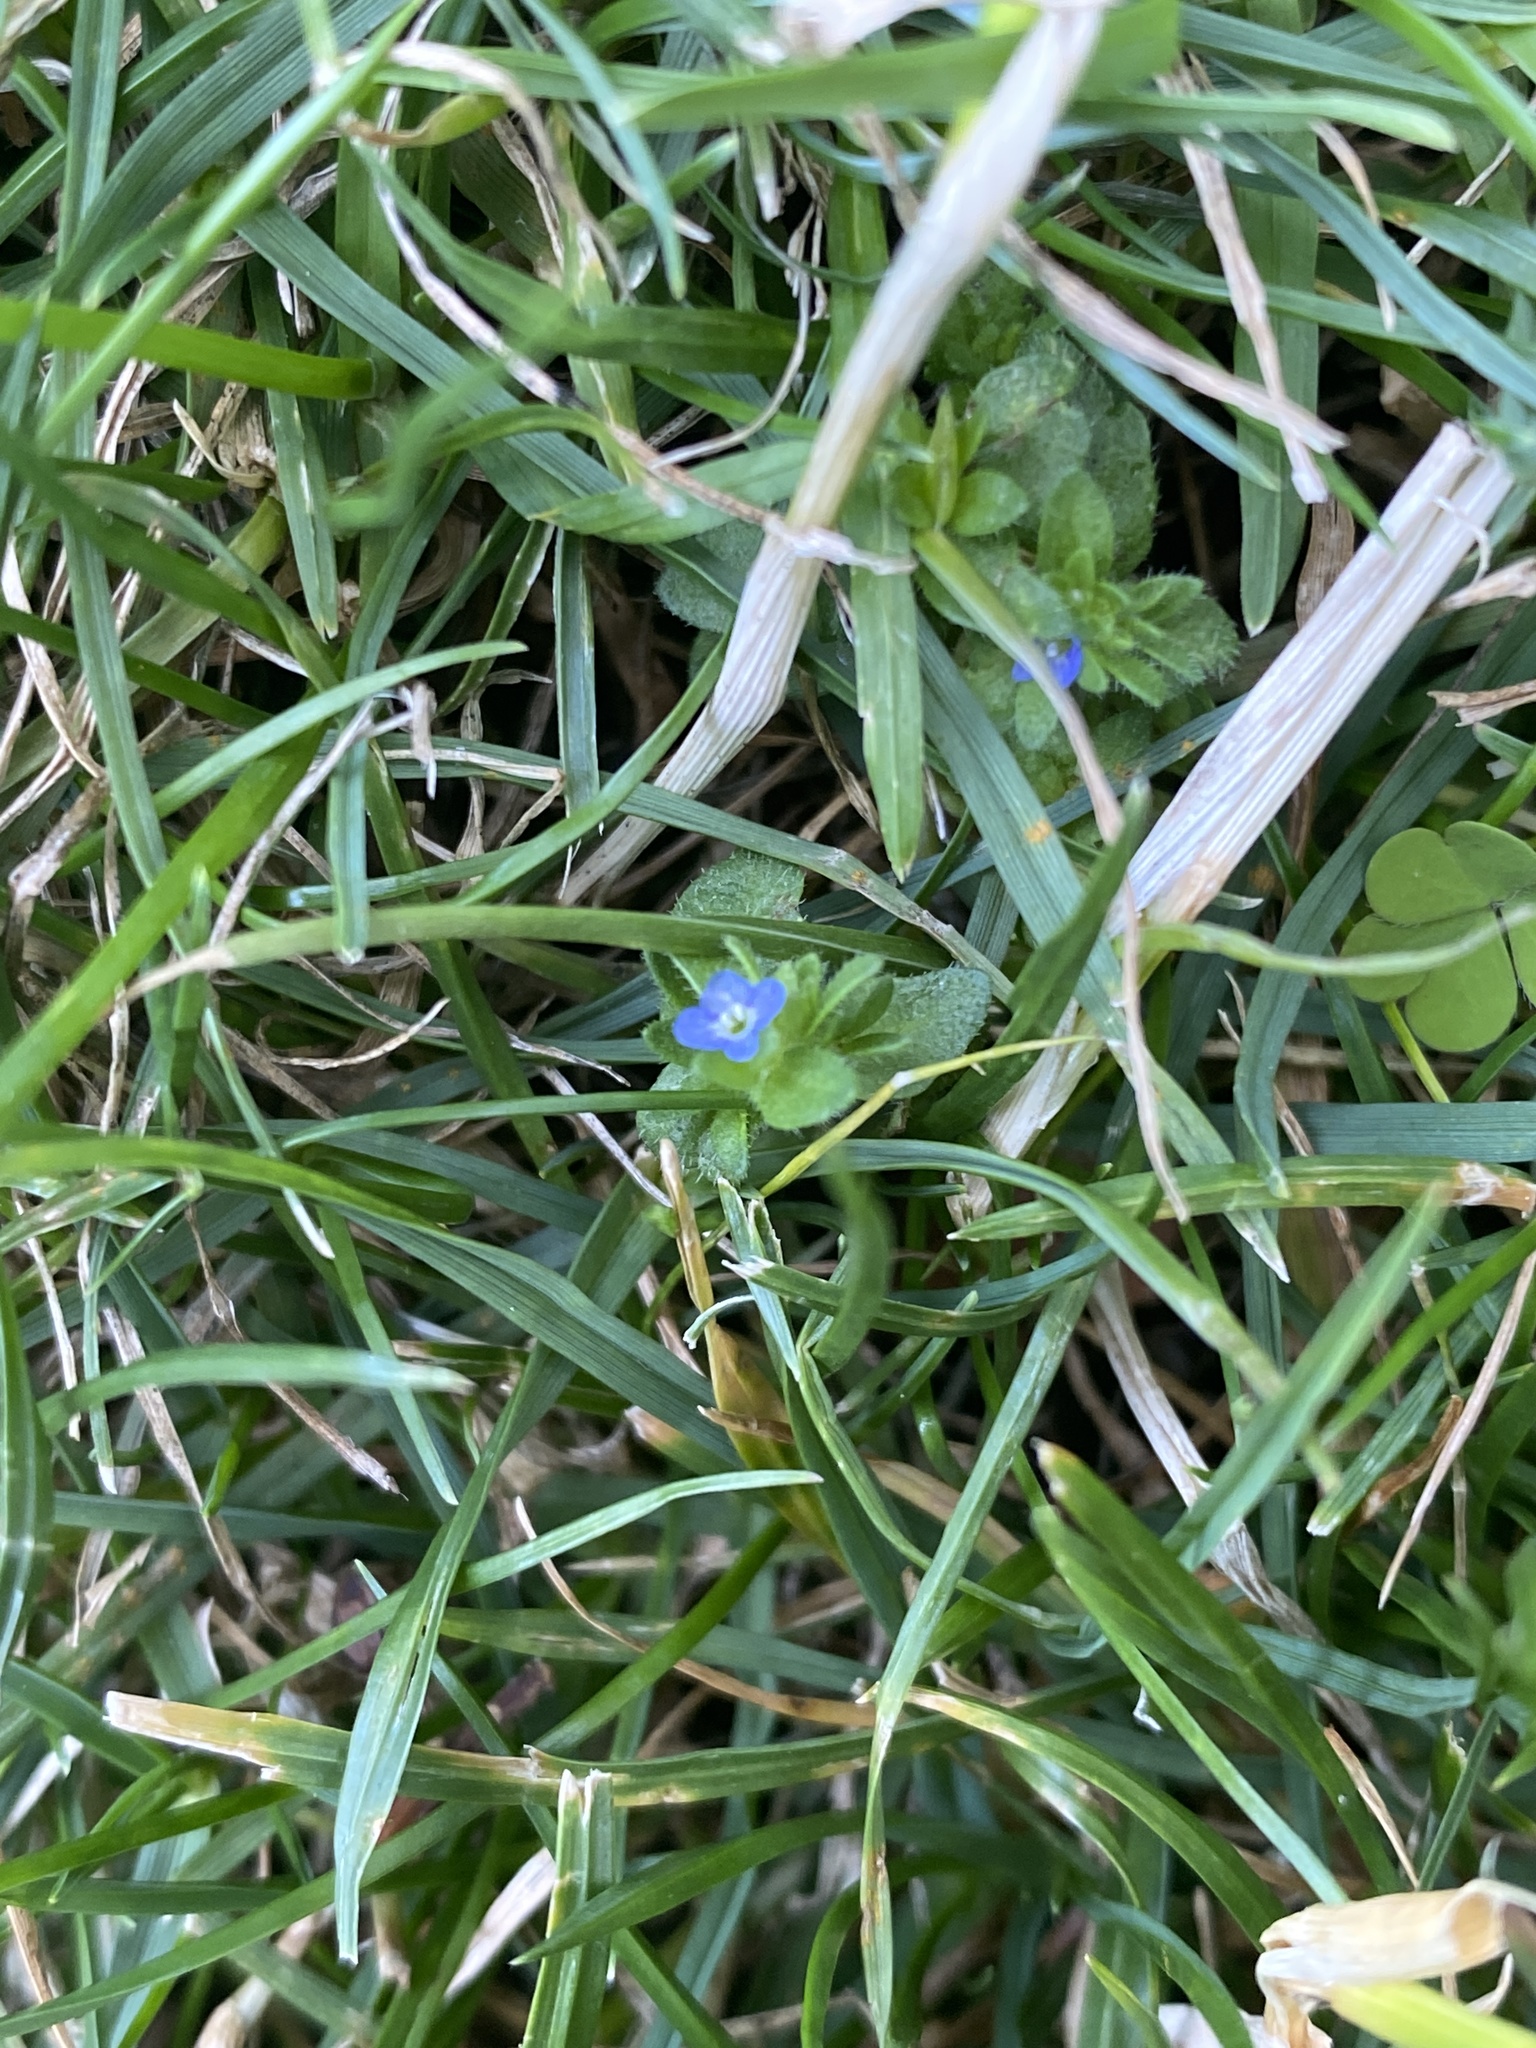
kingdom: Plantae
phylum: Tracheophyta
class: Magnoliopsida
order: Lamiales
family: Plantaginaceae
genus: Veronica
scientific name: Veronica arvensis
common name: Corn speedwell
